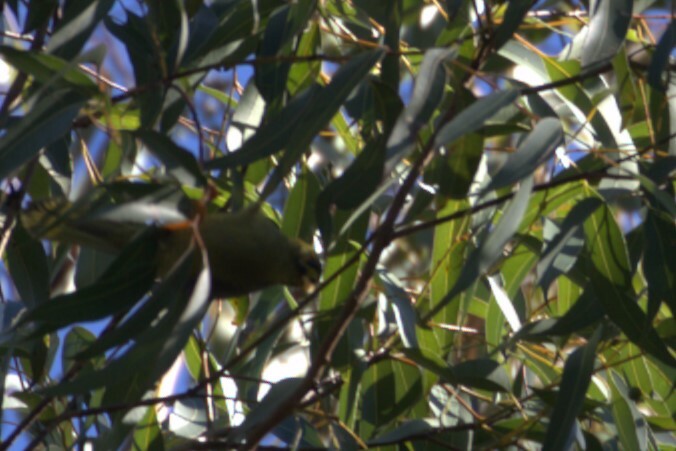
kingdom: Animalia
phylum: Chordata
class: Aves
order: Passeriformes
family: Meliphagidae
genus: Manorina
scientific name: Manorina melanophrys
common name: Bell miner
